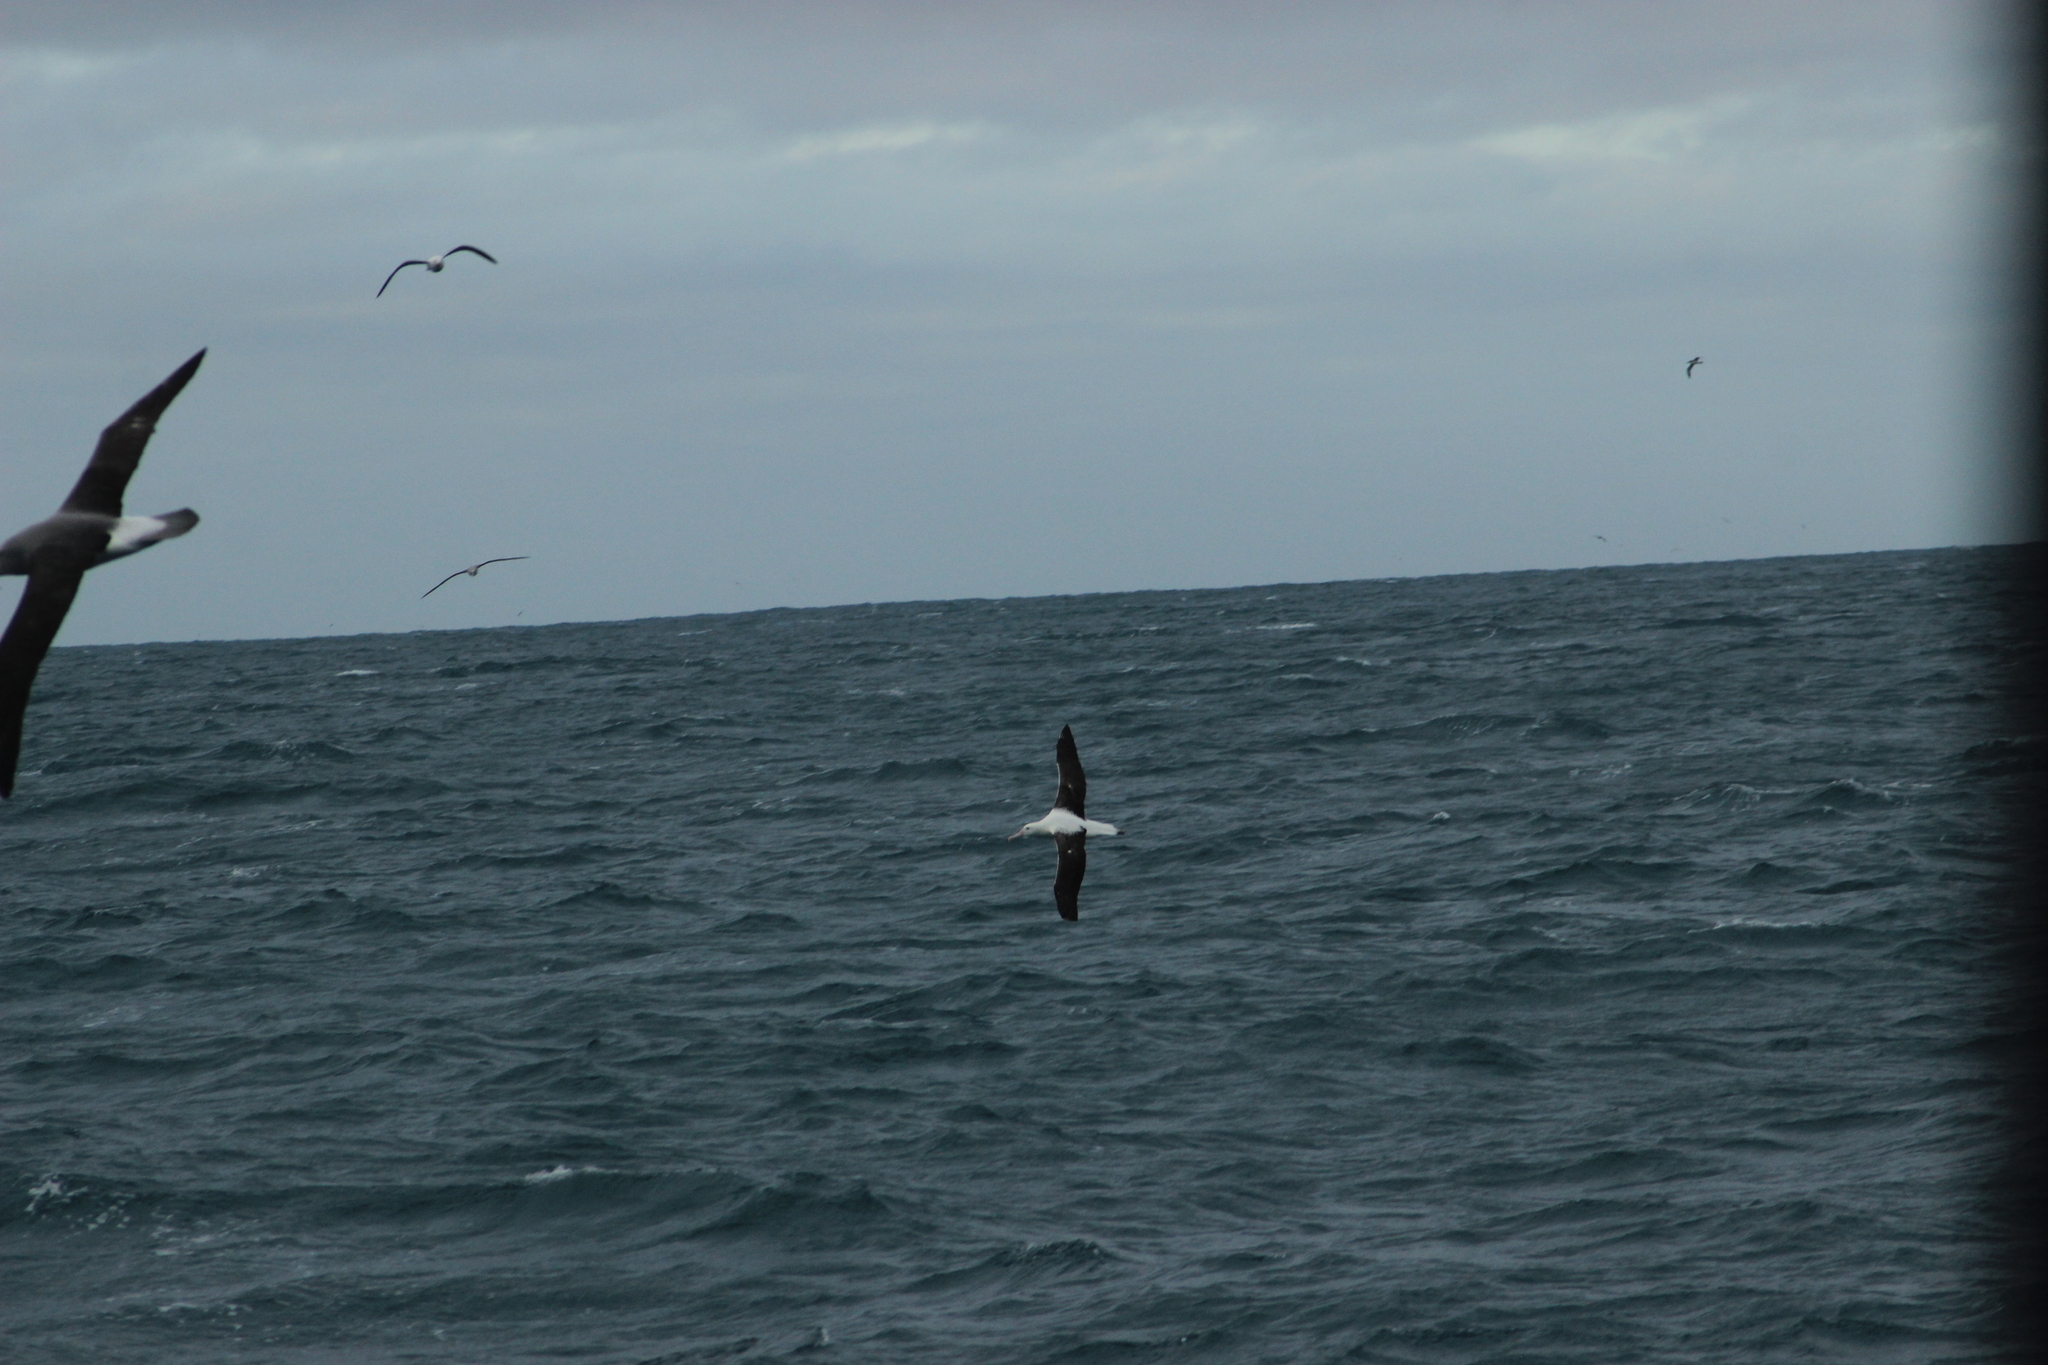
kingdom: Animalia
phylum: Chordata
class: Aves
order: Procellariiformes
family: Diomedeidae
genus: Diomedea
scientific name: Diomedea sanfordi
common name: Northern royal albatross
